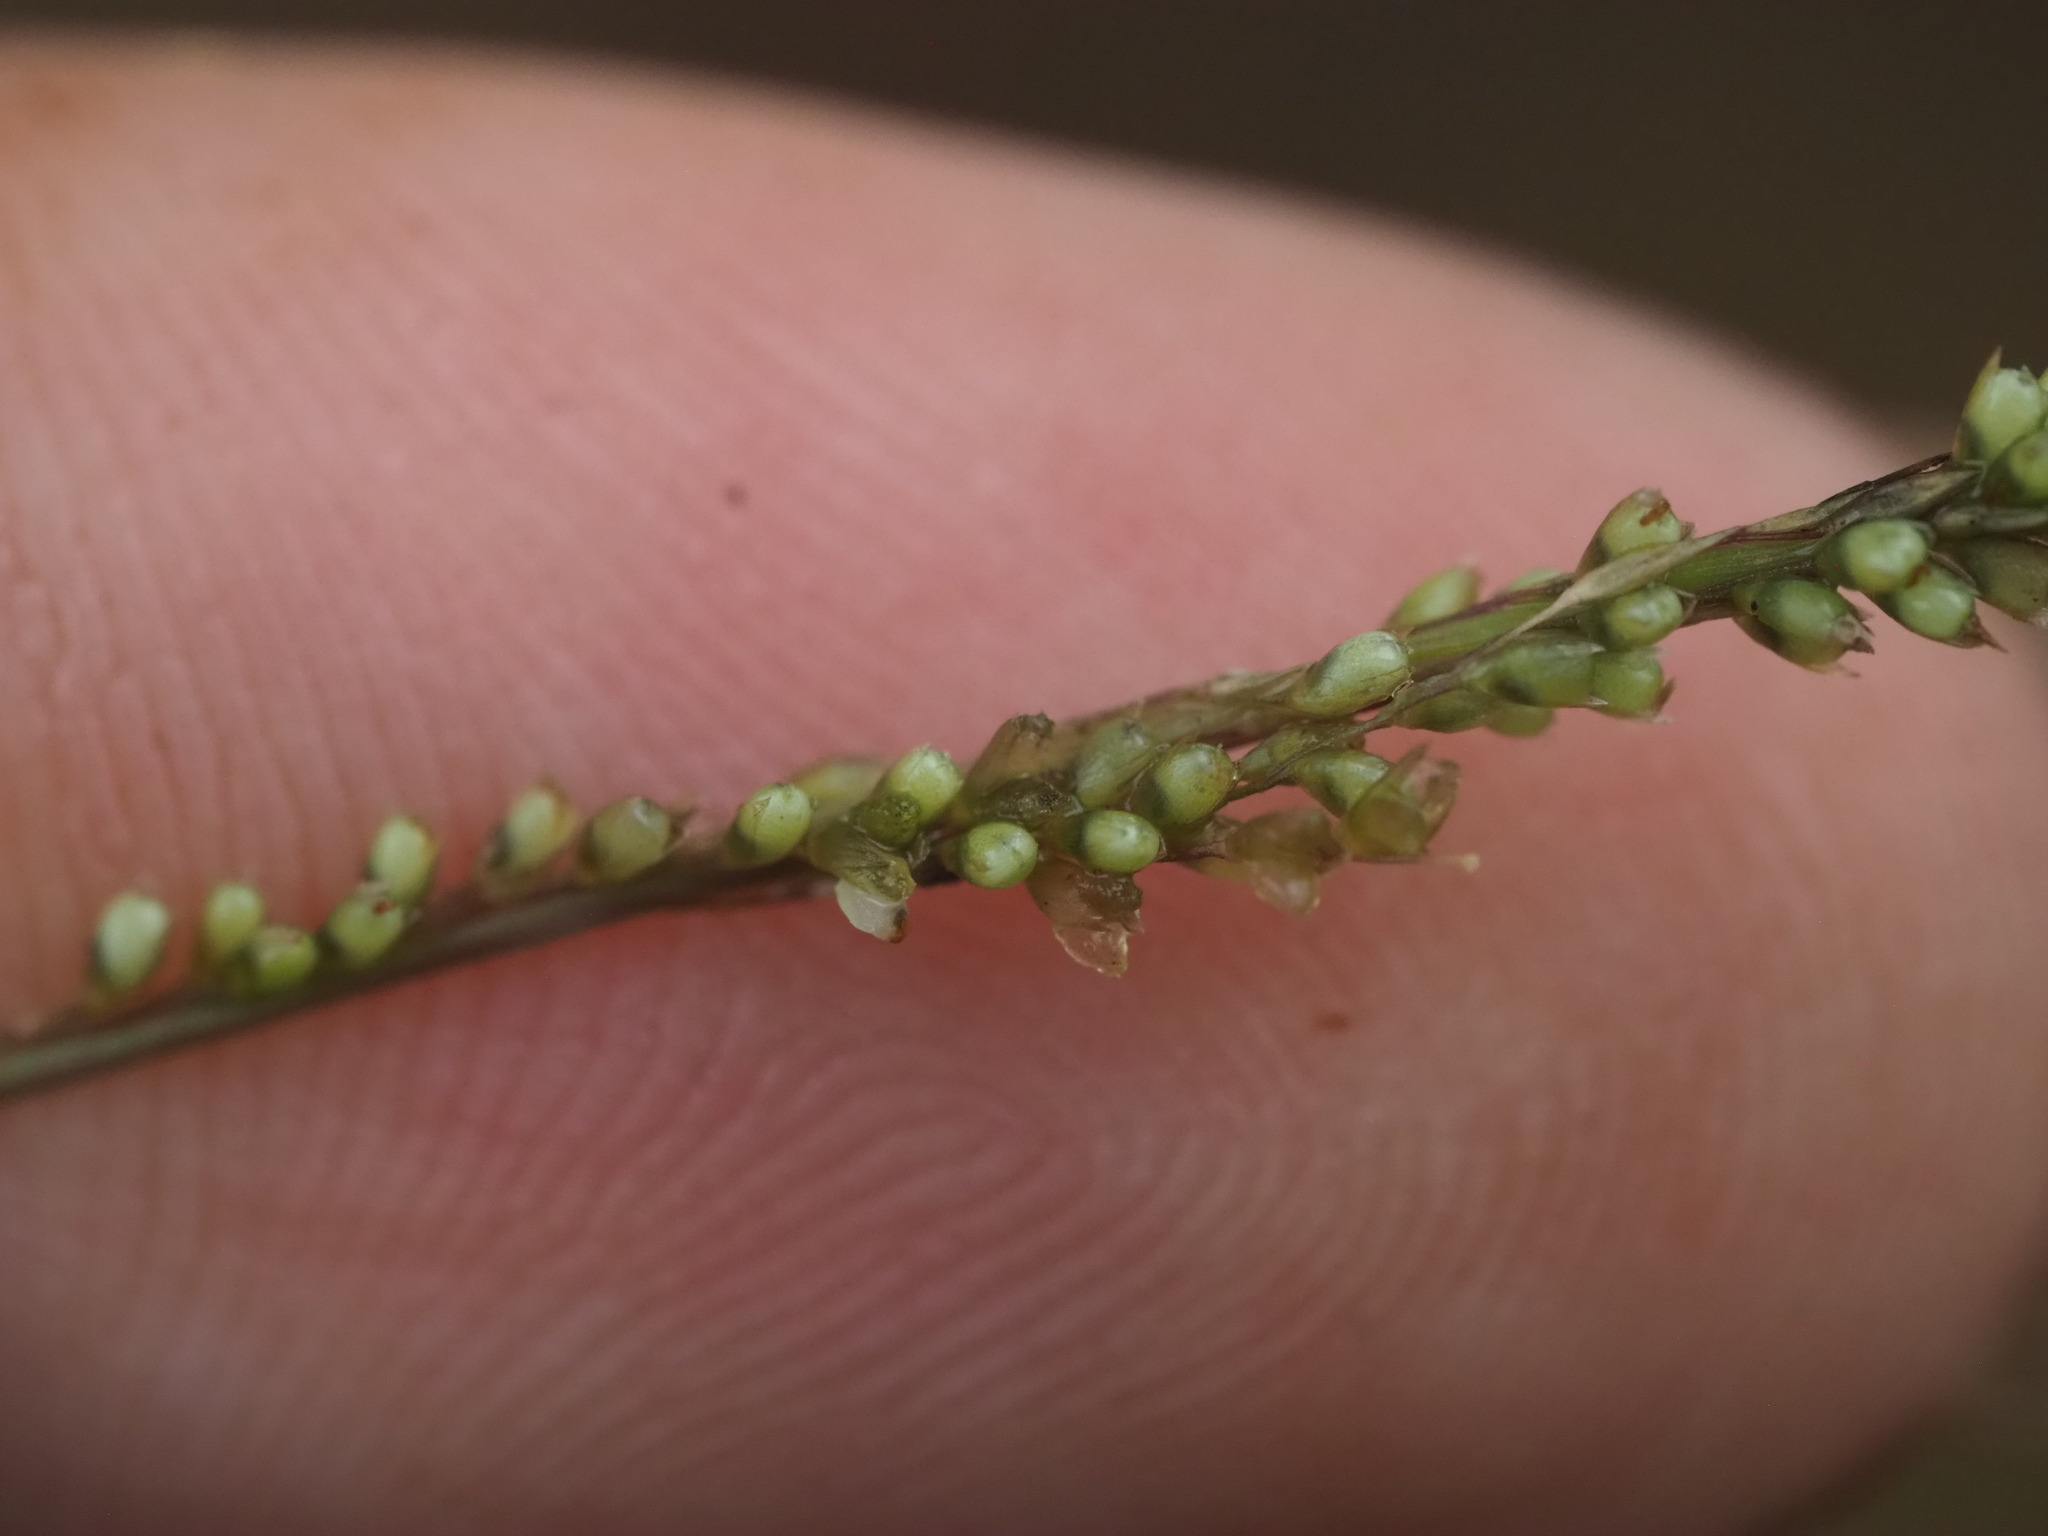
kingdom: Plantae
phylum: Tracheophyta
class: Liliopsida
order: Poales
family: Poaceae
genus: Sporobolus
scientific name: Sporobolus indicus
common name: Smut grass
